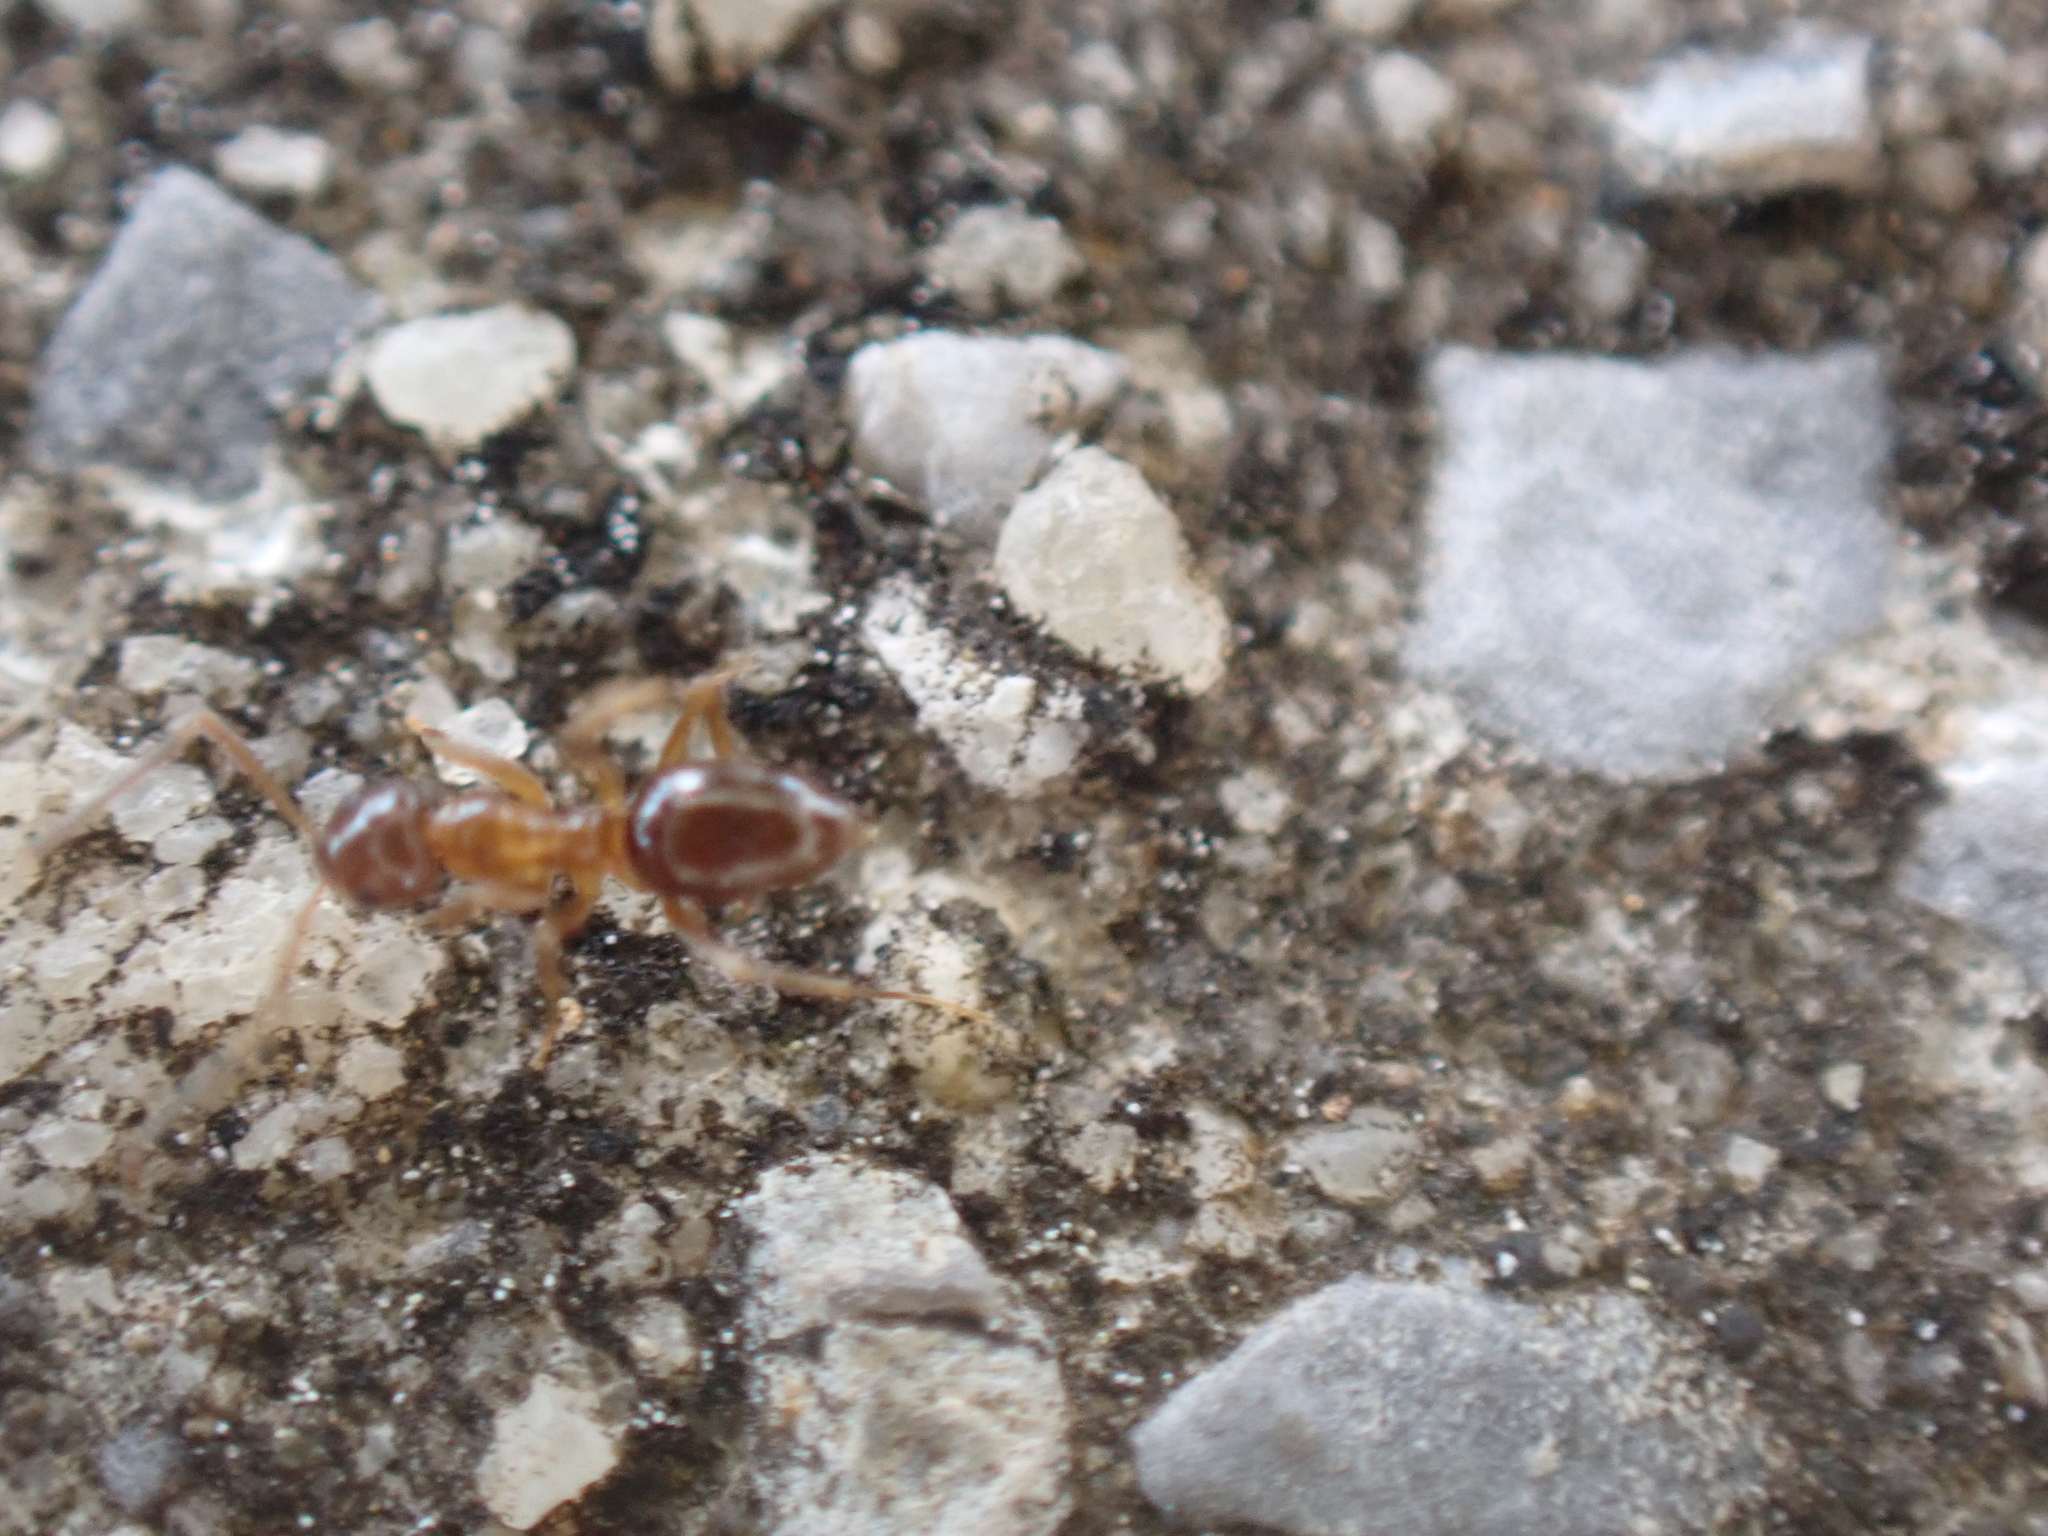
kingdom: Animalia
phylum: Arthropoda
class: Insecta
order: Hymenoptera
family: Formicidae
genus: Paratrechina
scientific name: Paratrechina vividula
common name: Nylander's crazy ant
